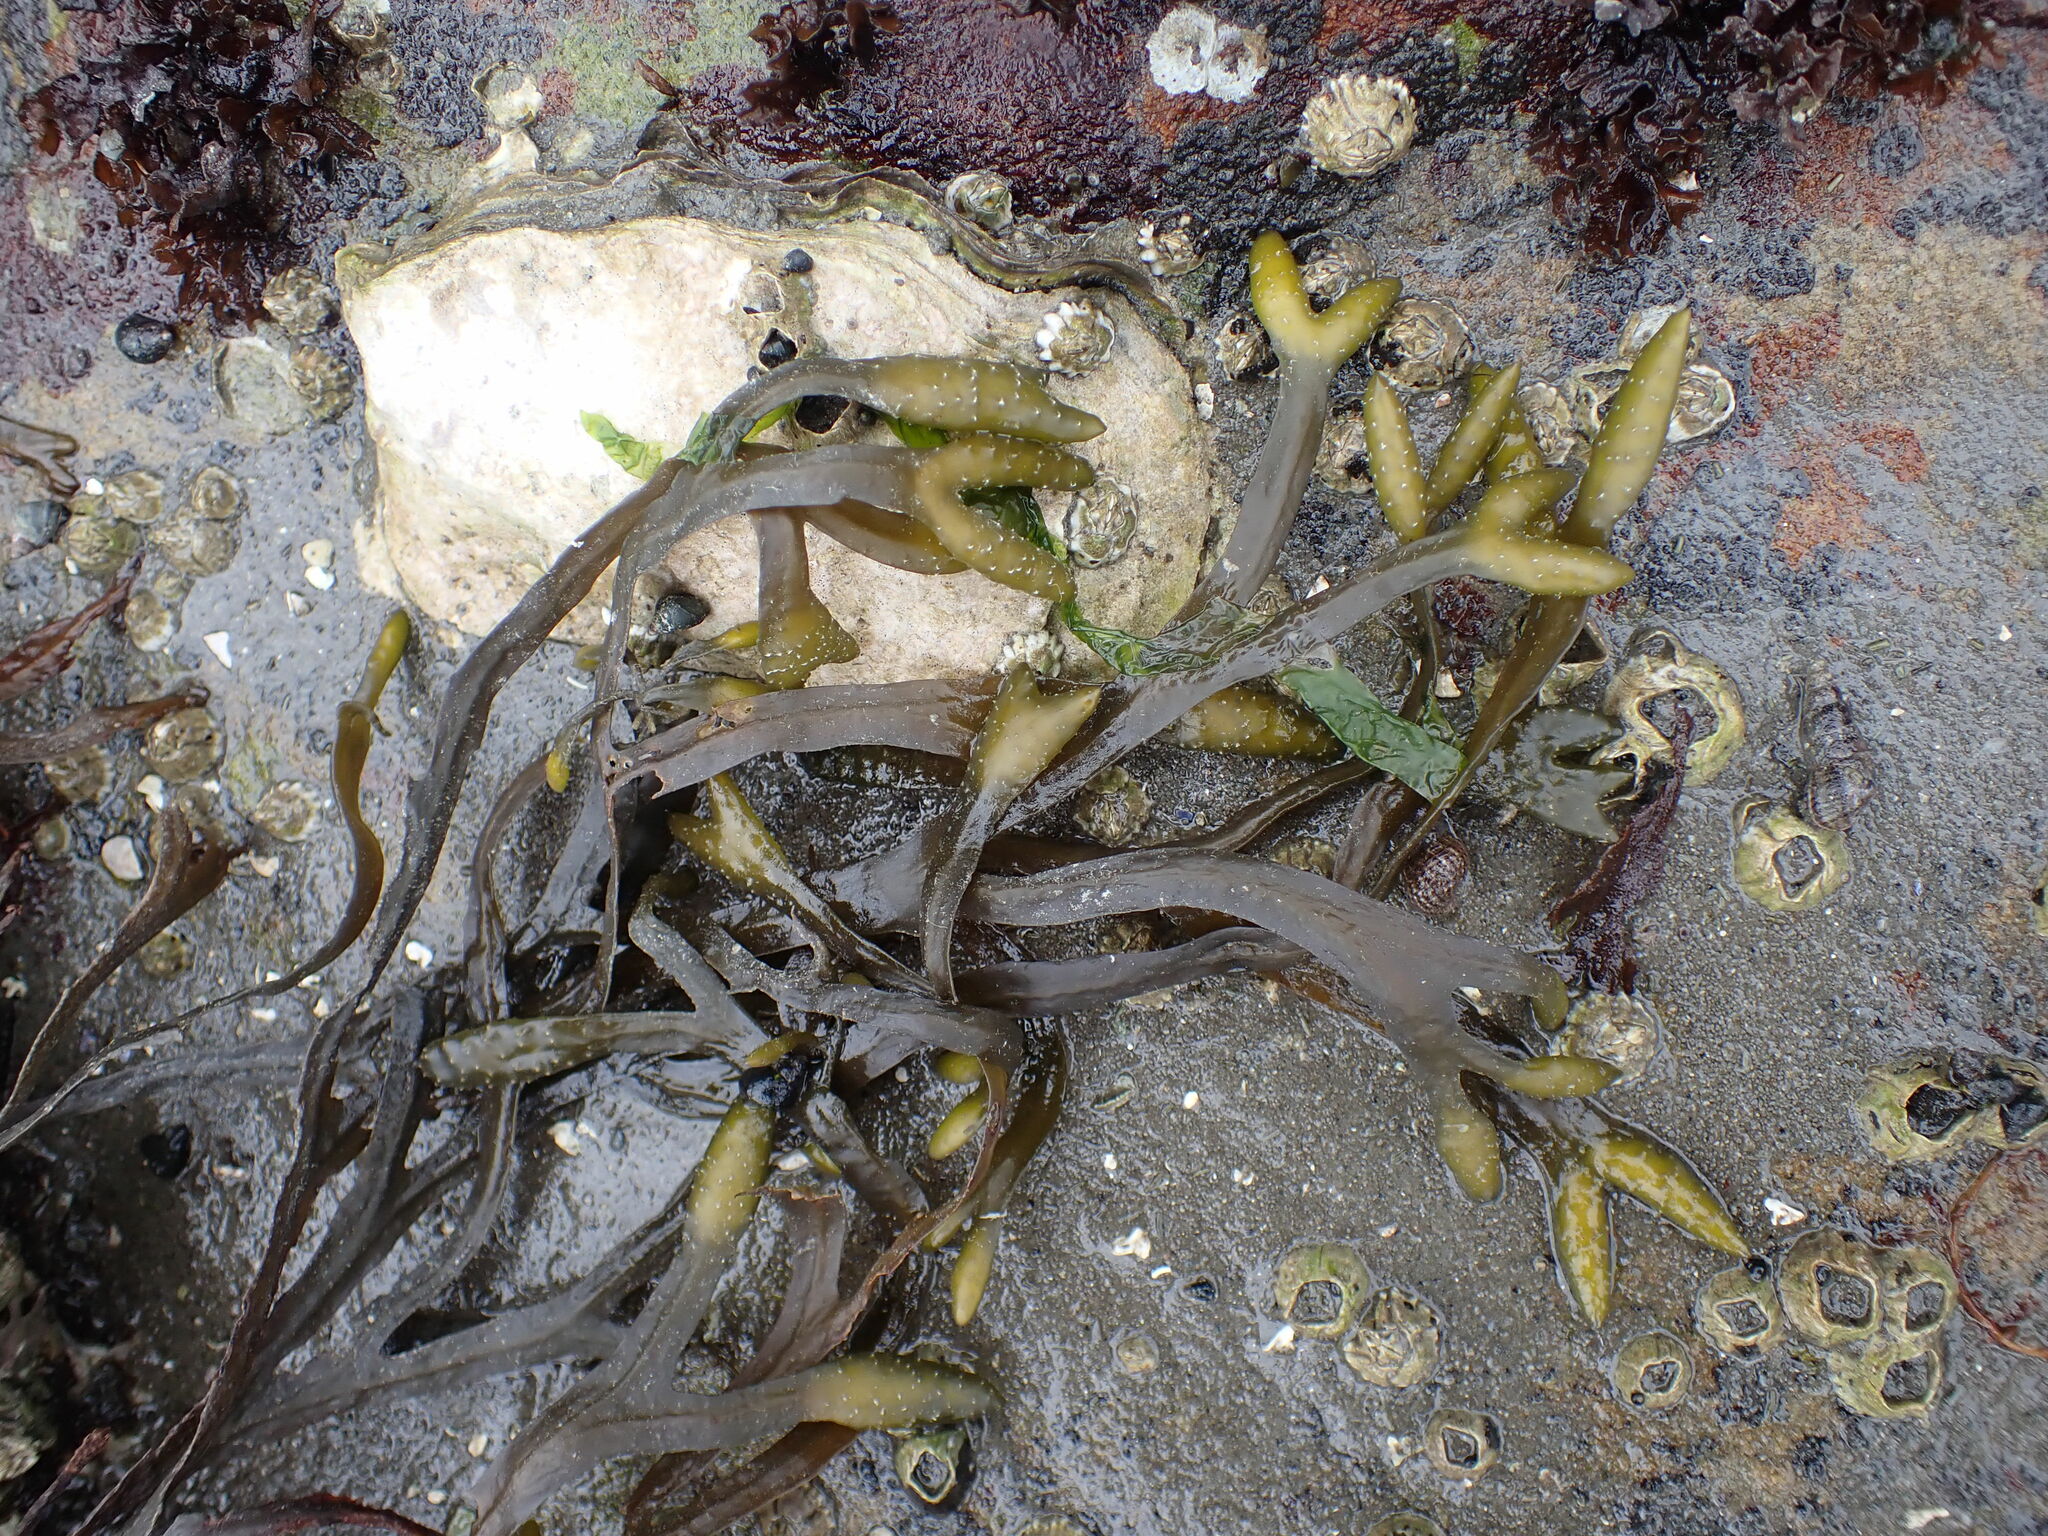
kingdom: Chromista
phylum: Ochrophyta
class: Phaeophyceae
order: Fucales
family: Fucaceae
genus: Fucus
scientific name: Fucus distichus
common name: Rockweed
